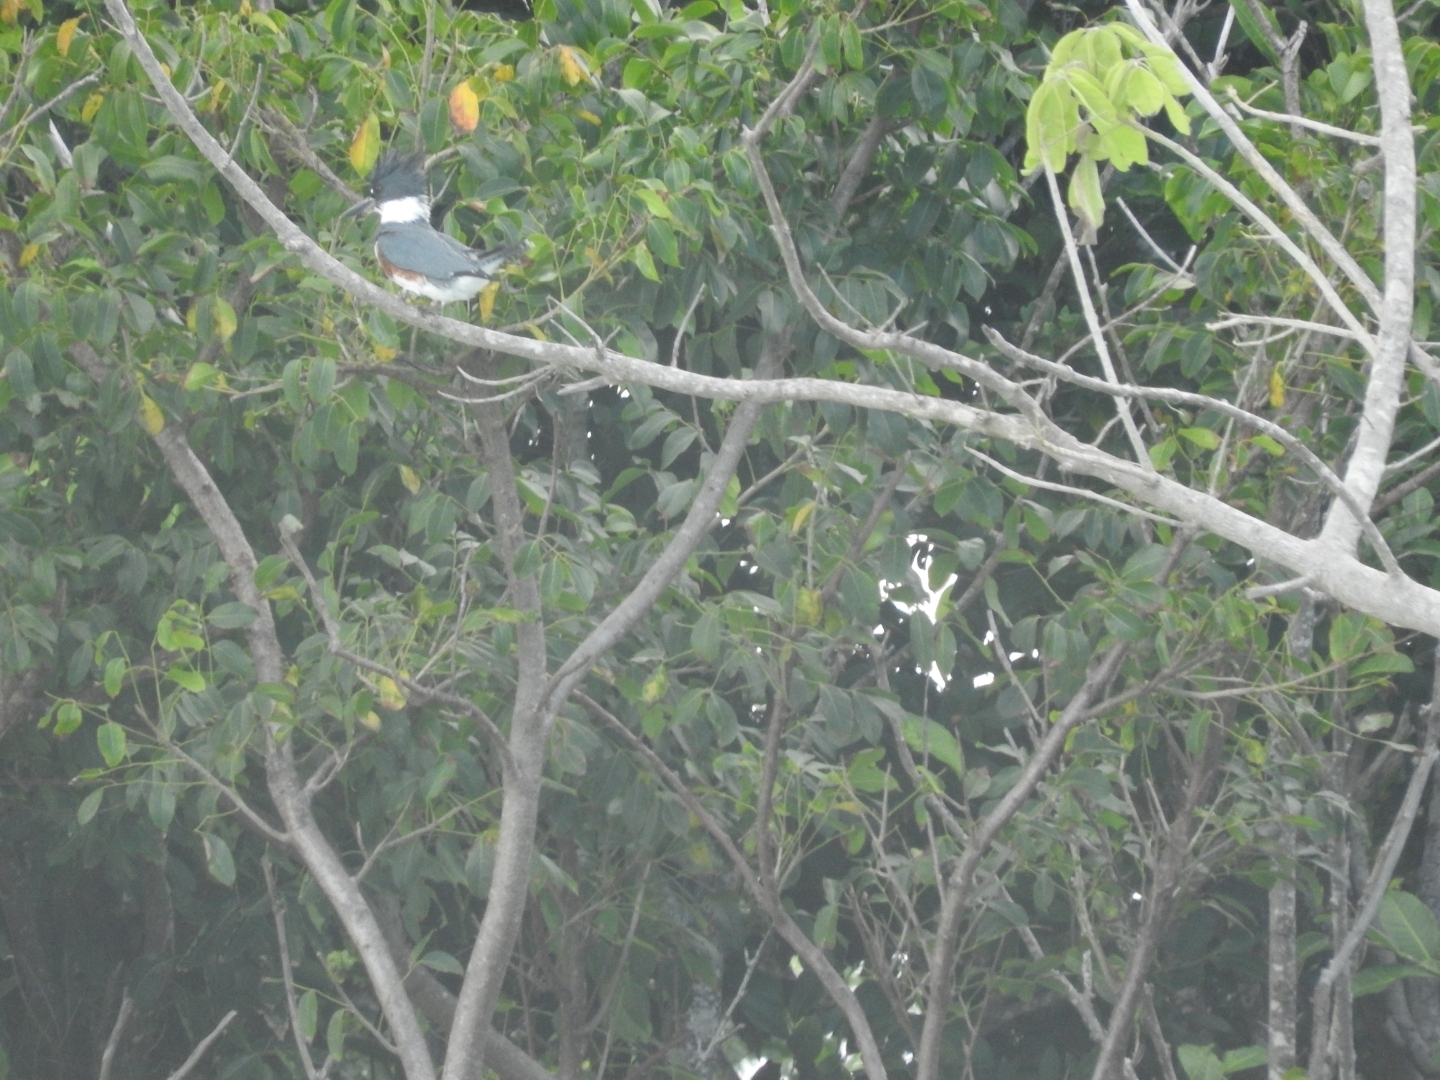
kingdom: Animalia
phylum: Chordata
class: Aves
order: Coraciiformes
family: Alcedinidae
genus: Megaceryle
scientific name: Megaceryle alcyon
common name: Belted kingfisher
